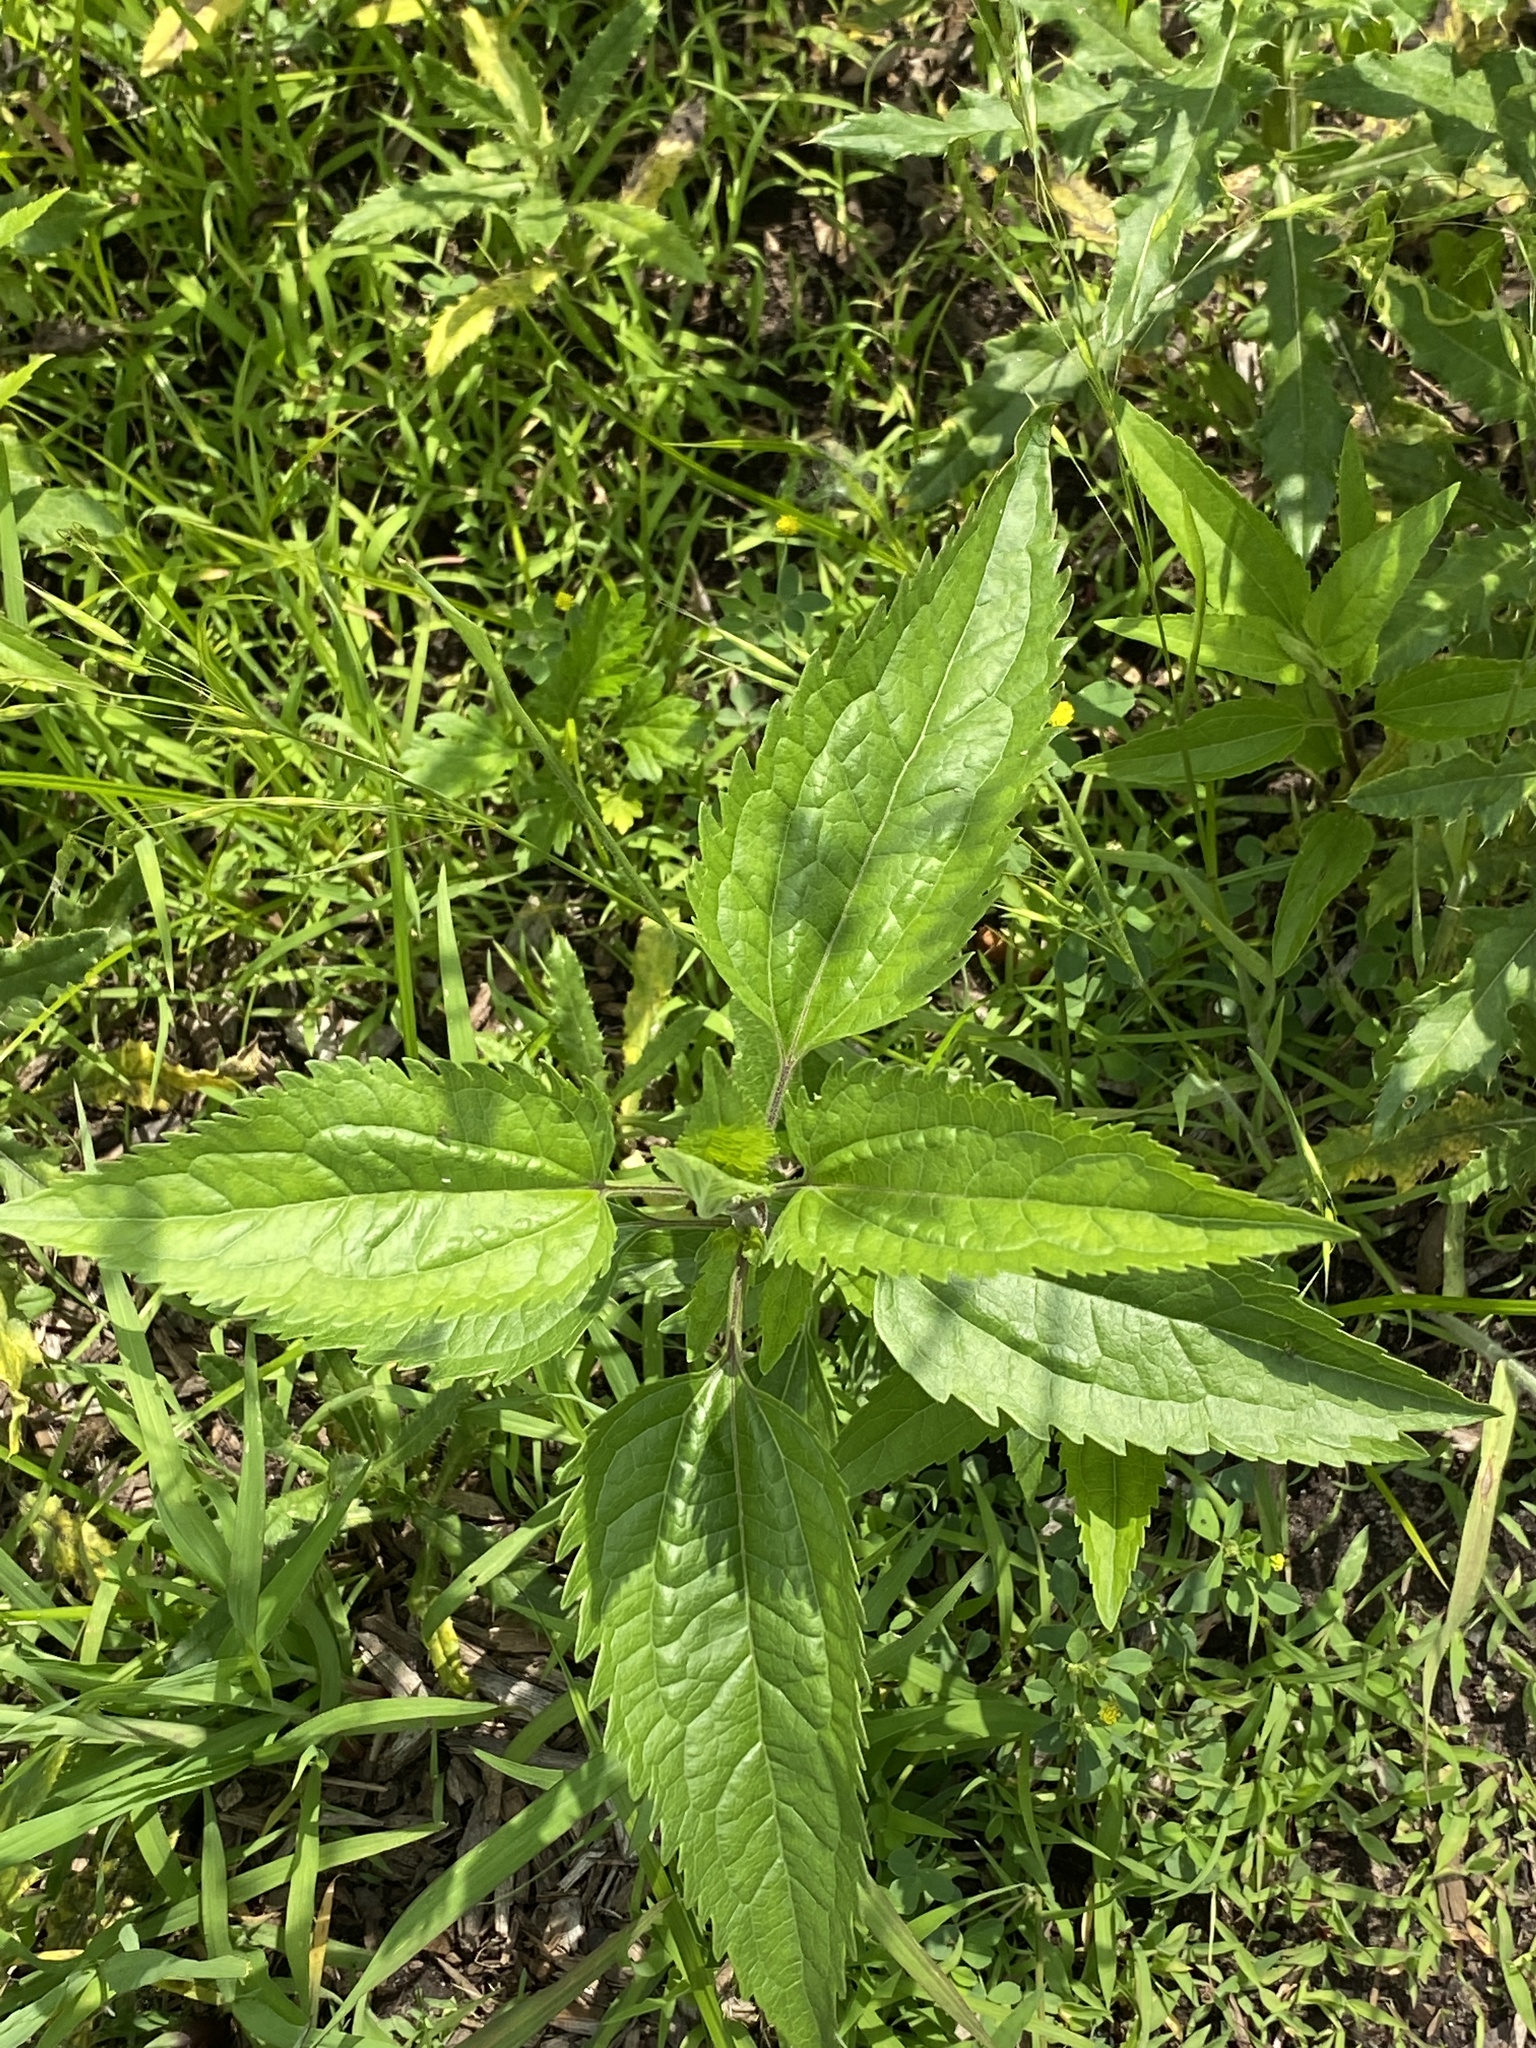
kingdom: Plantae
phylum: Tracheophyta
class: Magnoliopsida
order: Asterales
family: Asteraceae
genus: Eupatorium
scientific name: Eupatorium serotinum
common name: Late boneset
